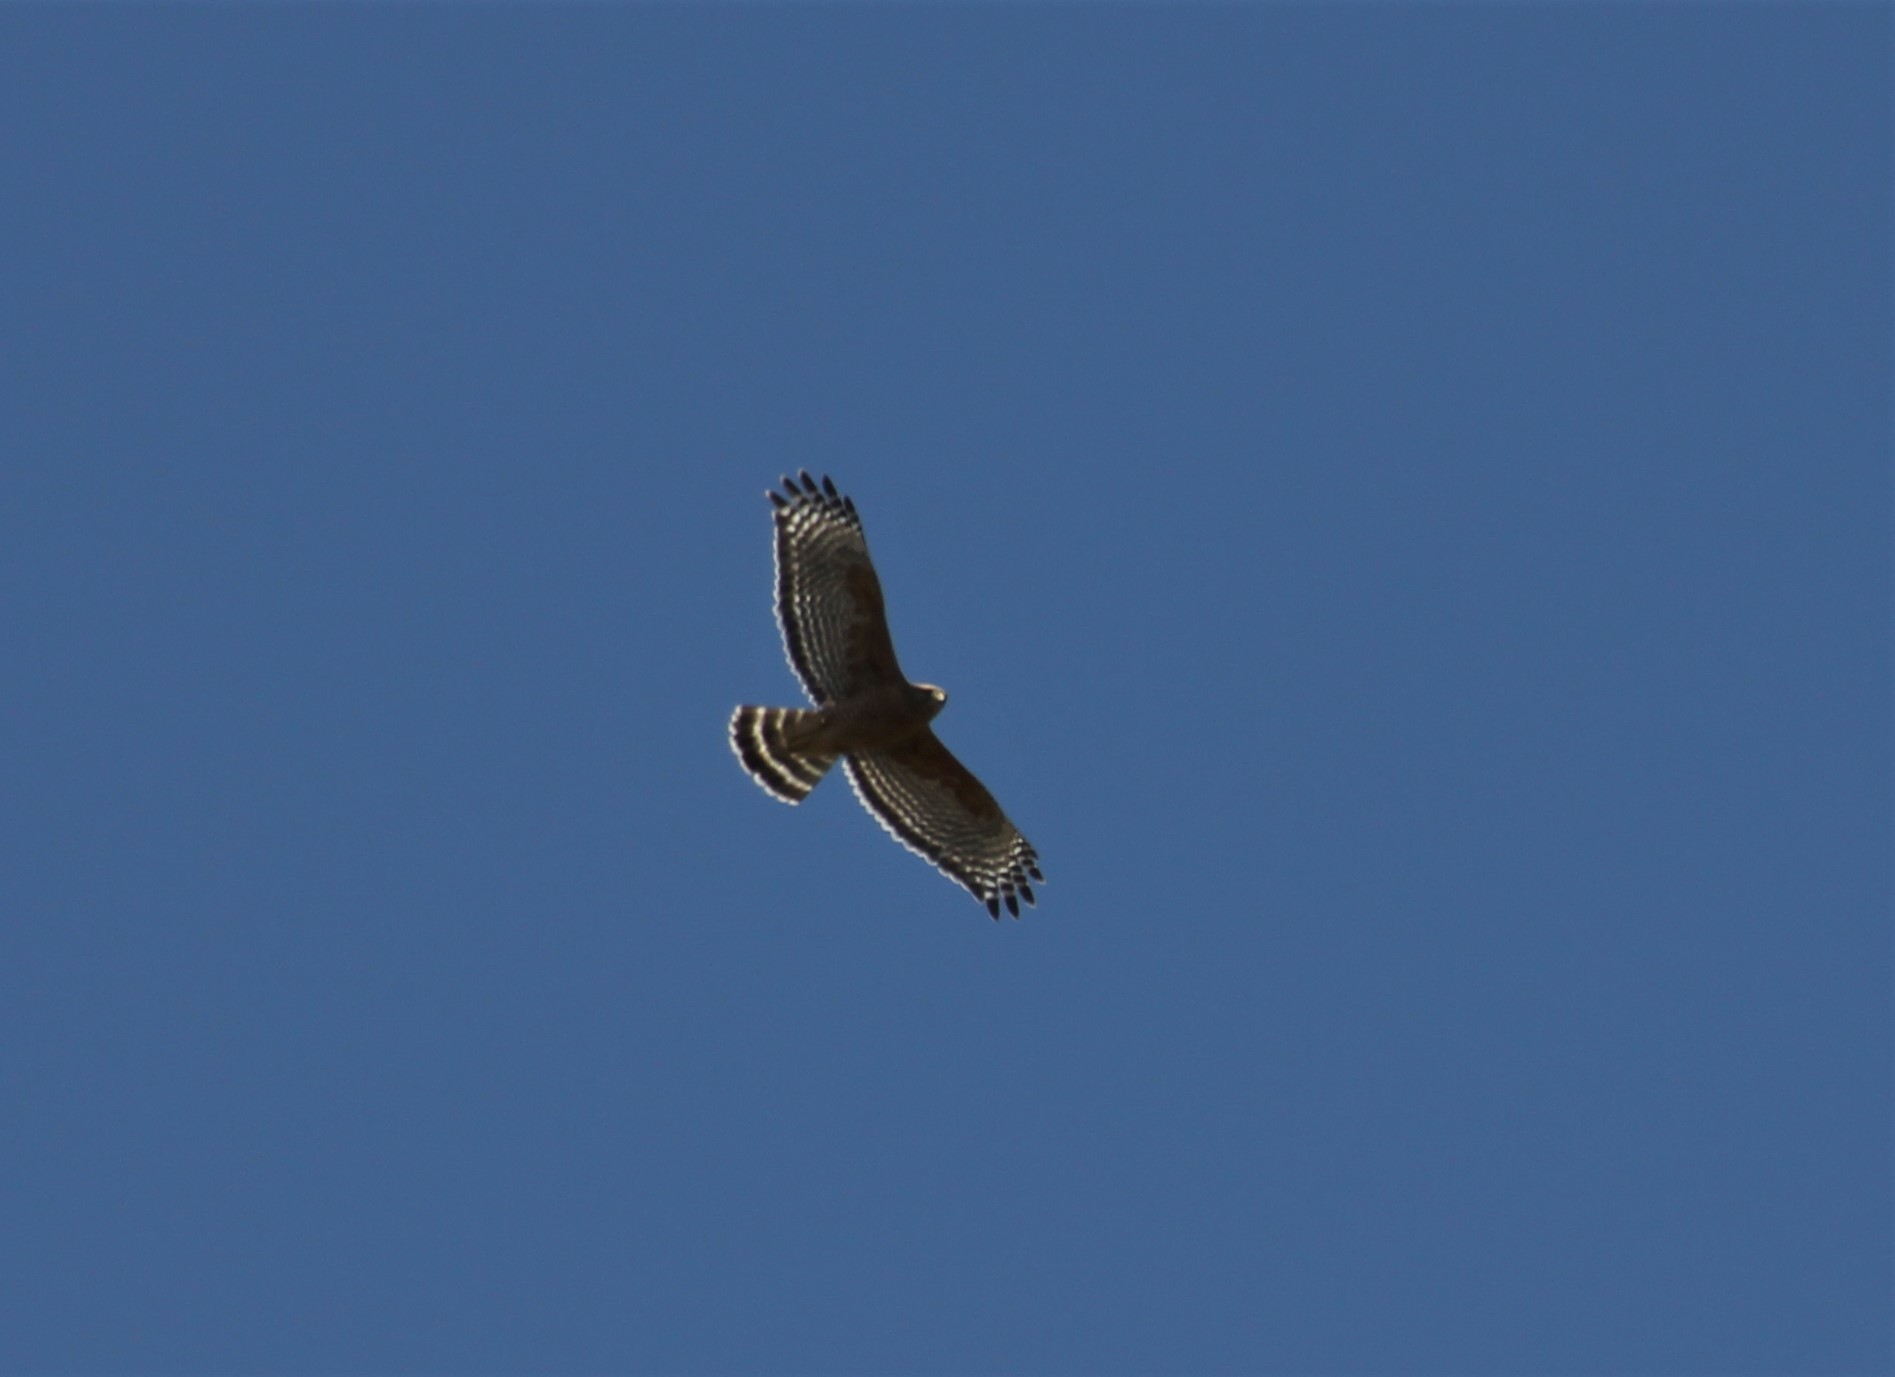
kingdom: Animalia
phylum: Chordata
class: Aves
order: Accipitriformes
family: Accipitridae
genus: Buteo
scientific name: Buteo lineatus
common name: Red-shouldered hawk
